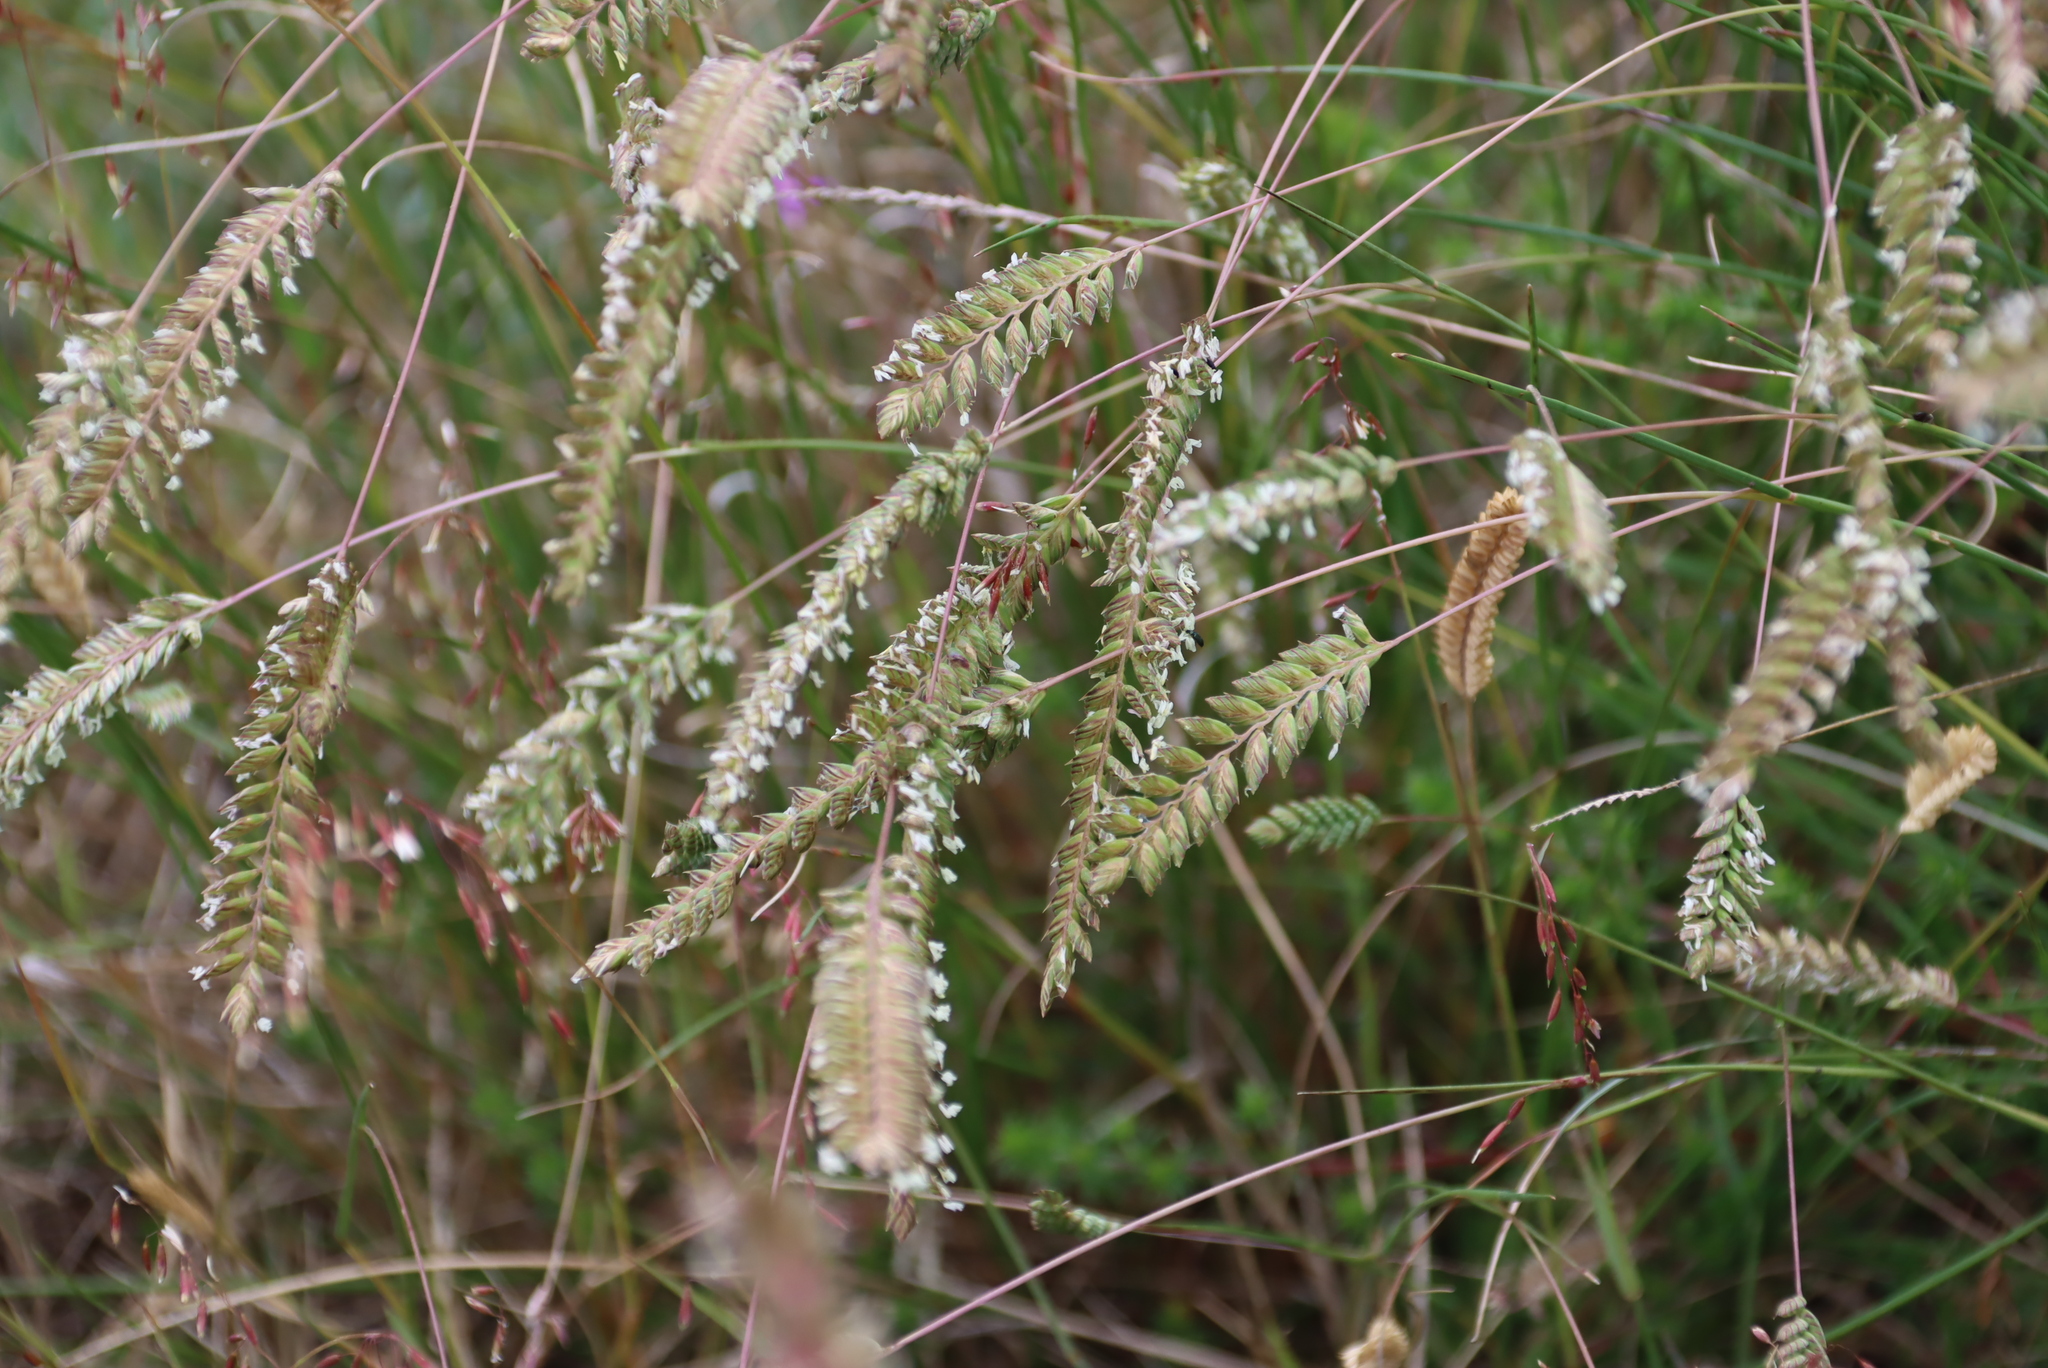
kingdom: Plantae
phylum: Tracheophyta
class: Liliopsida
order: Poales
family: Poaceae
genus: Tribolium
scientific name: Tribolium uniolae
